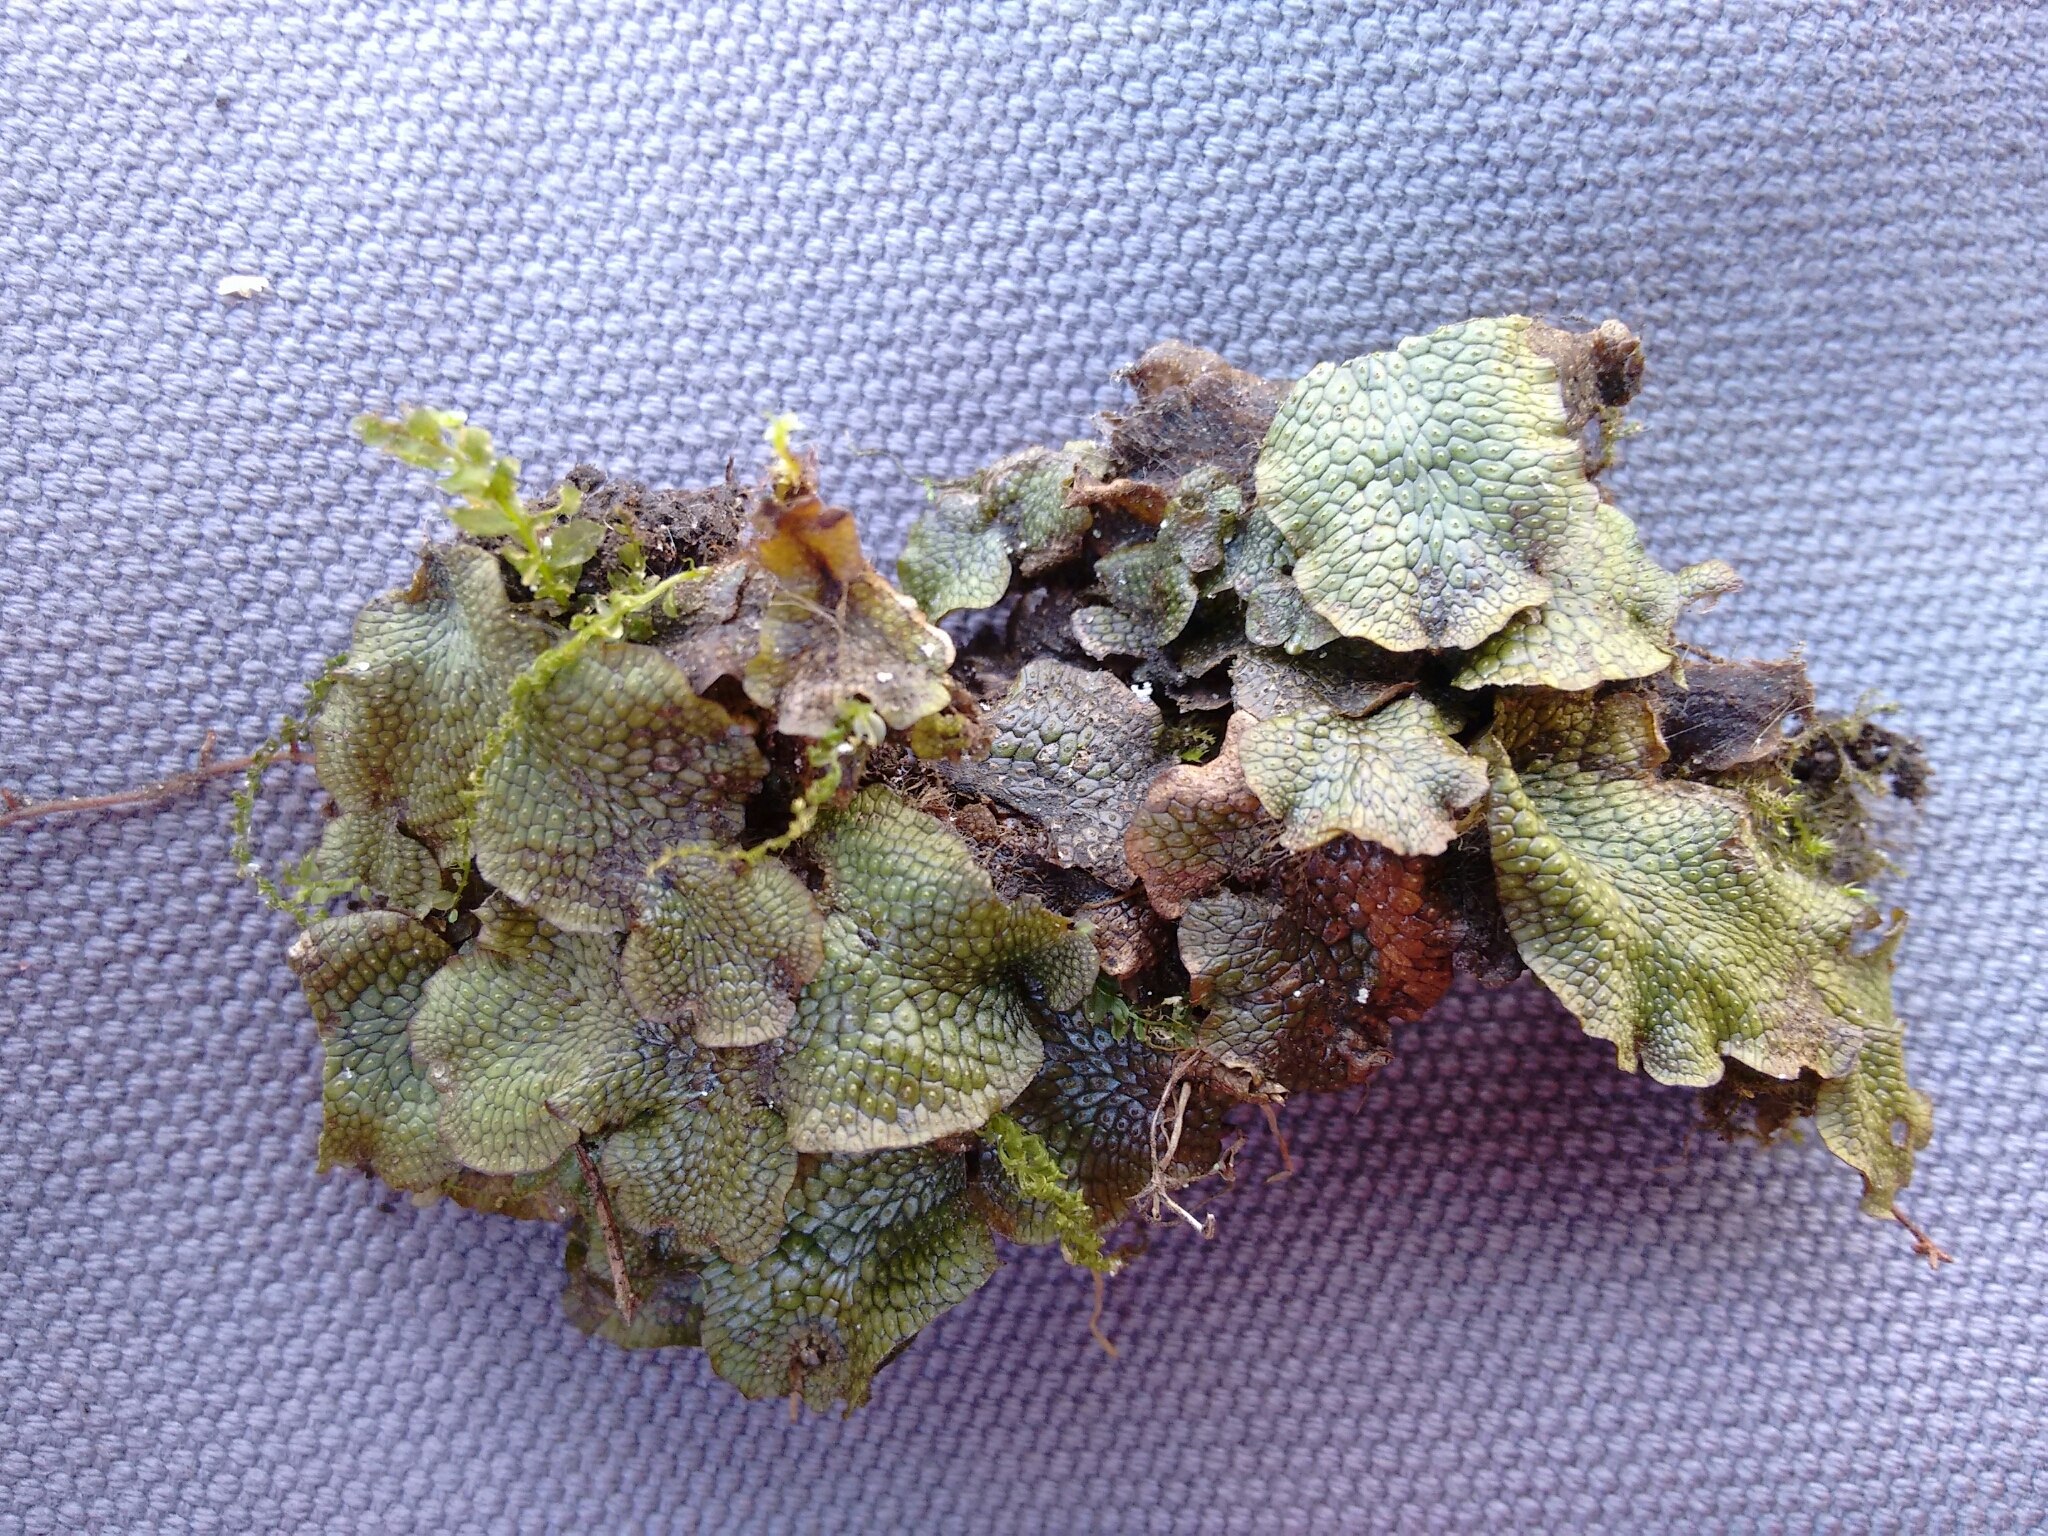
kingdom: Plantae
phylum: Marchantiophyta
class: Marchantiopsida
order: Marchantiales
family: Conocephalaceae
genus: Conocephalum
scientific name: Conocephalum salebrosum
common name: Cat-tongue liverwort
